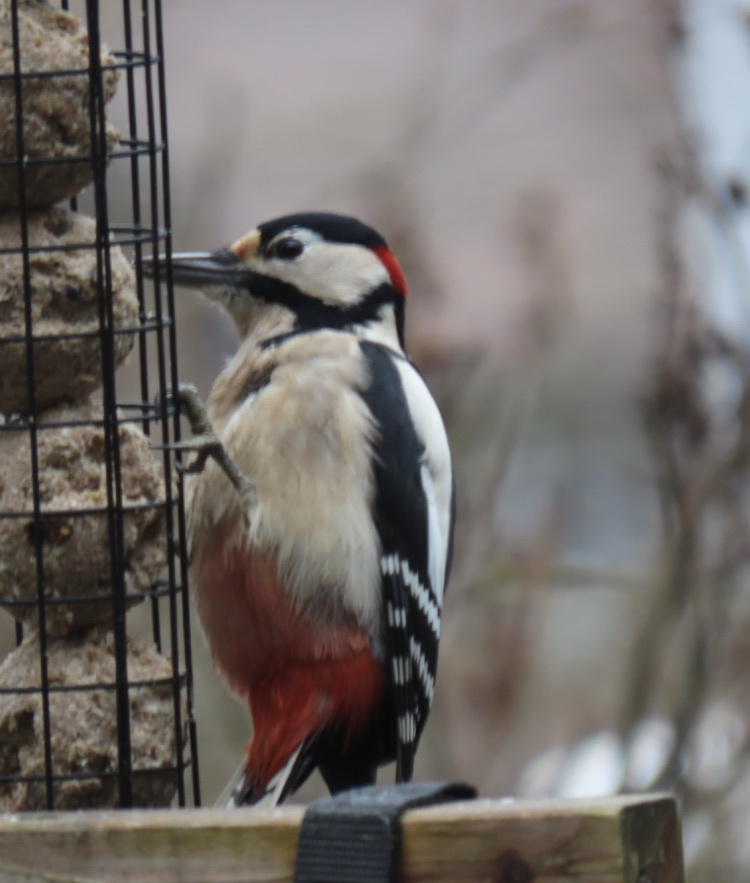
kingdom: Animalia
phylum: Chordata
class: Aves
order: Piciformes
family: Picidae
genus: Dendrocopos
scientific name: Dendrocopos major
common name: Great spotted woodpecker
